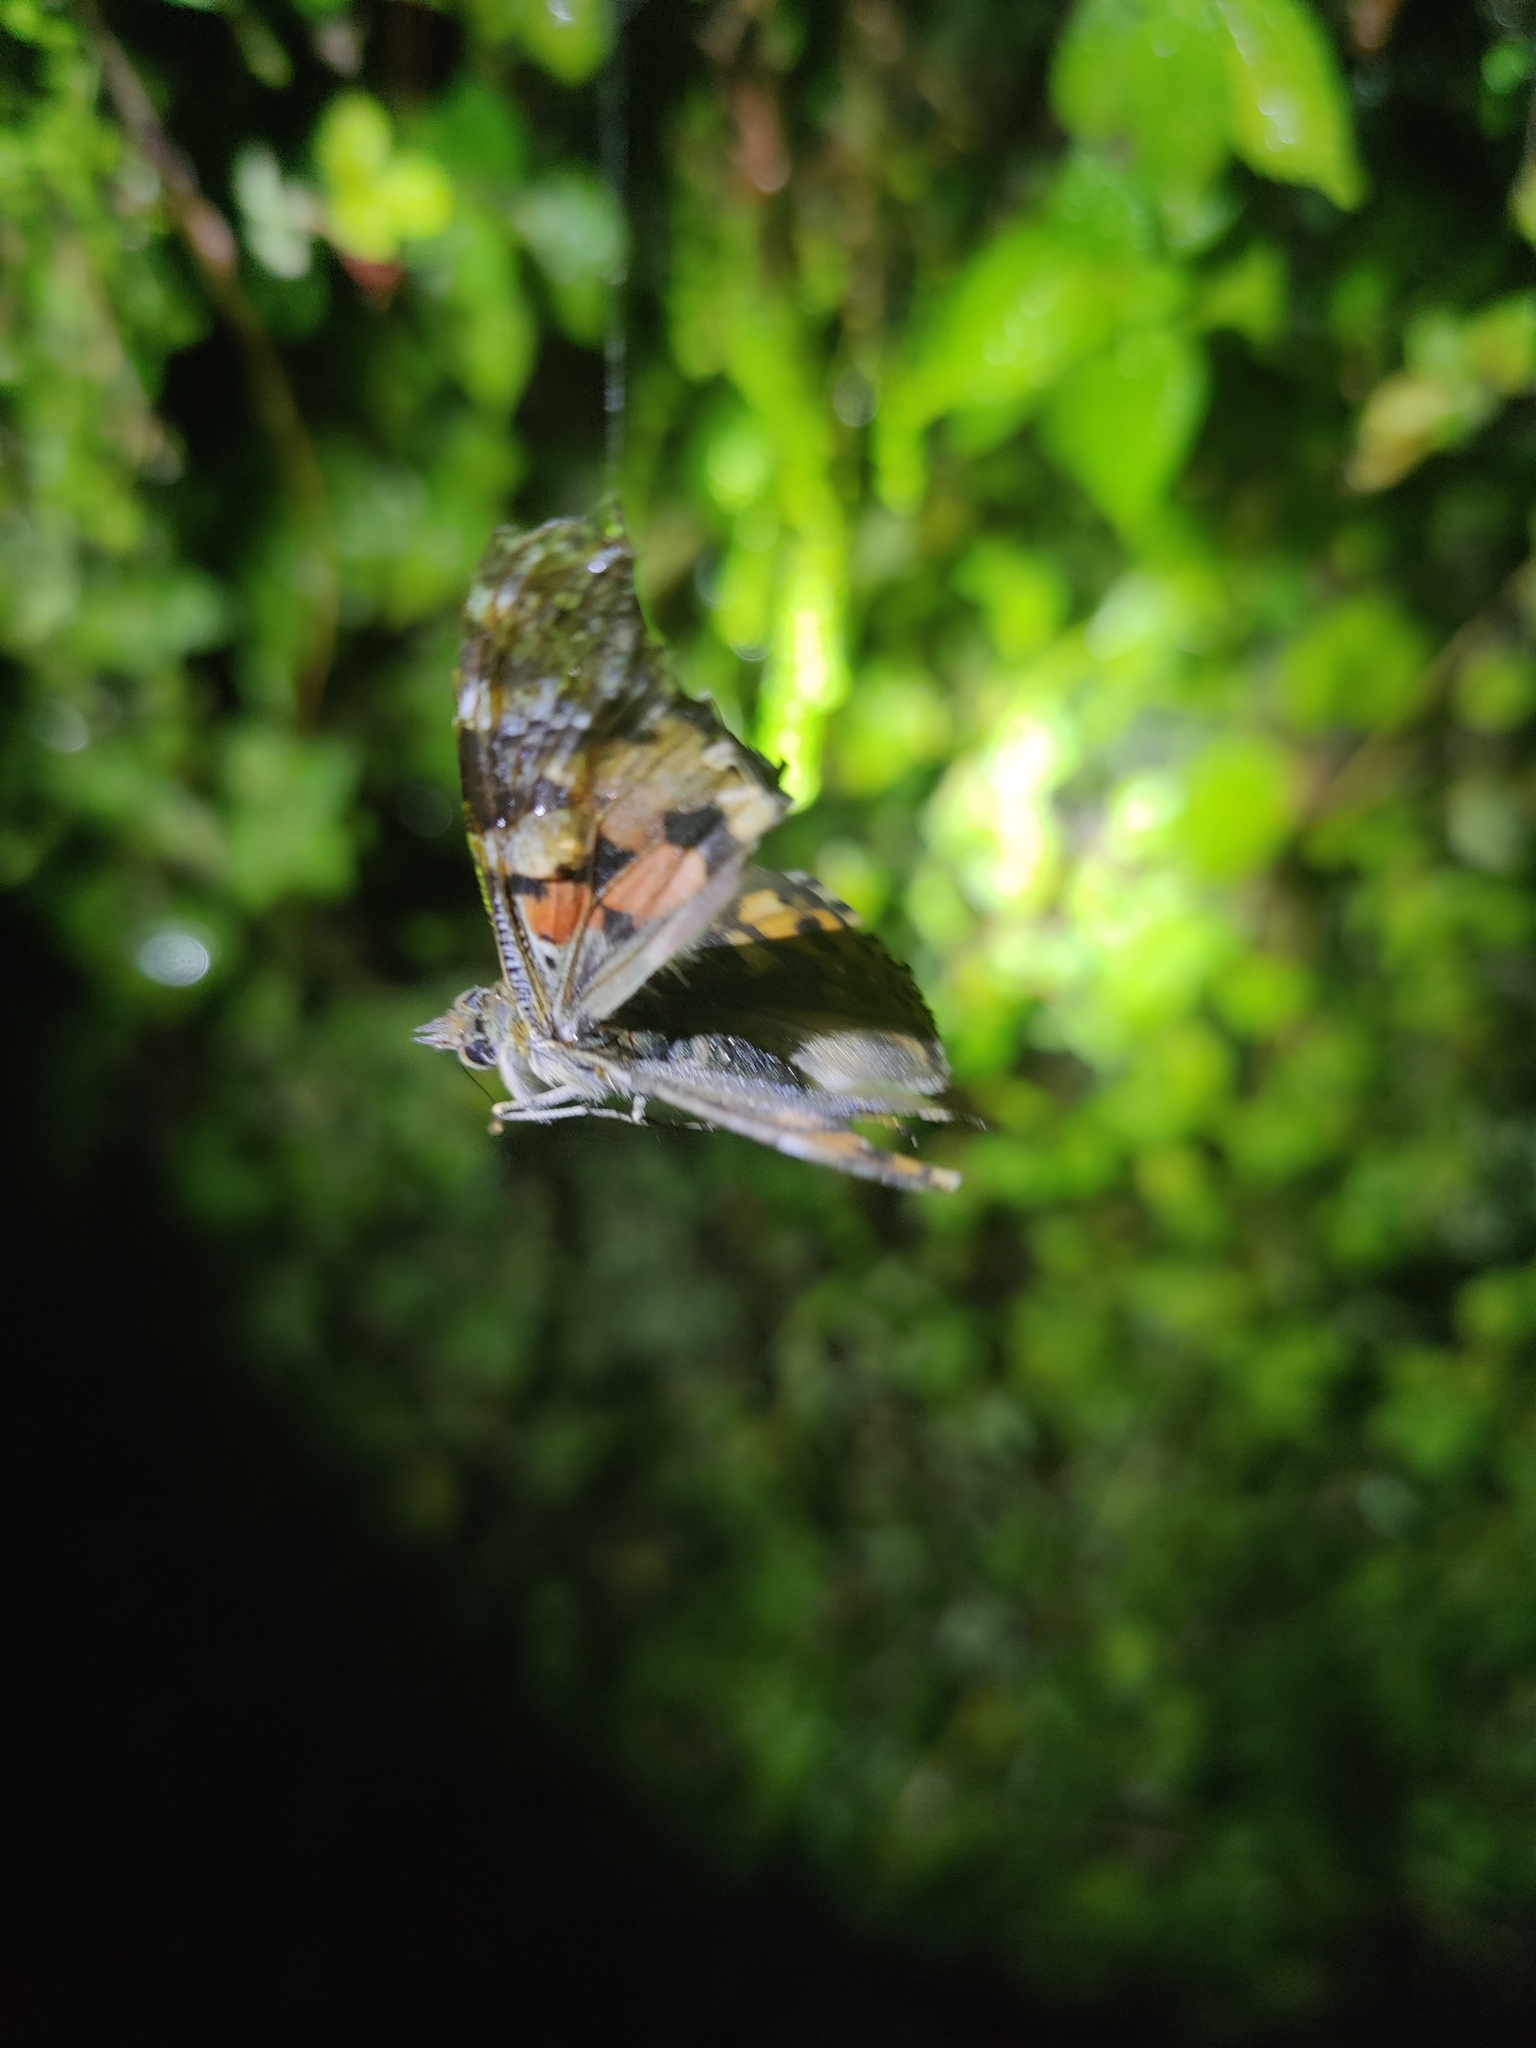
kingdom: Animalia
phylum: Arthropoda
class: Insecta
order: Lepidoptera
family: Nymphalidae
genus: Vanessa
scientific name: Vanessa cardui
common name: Painted lady
